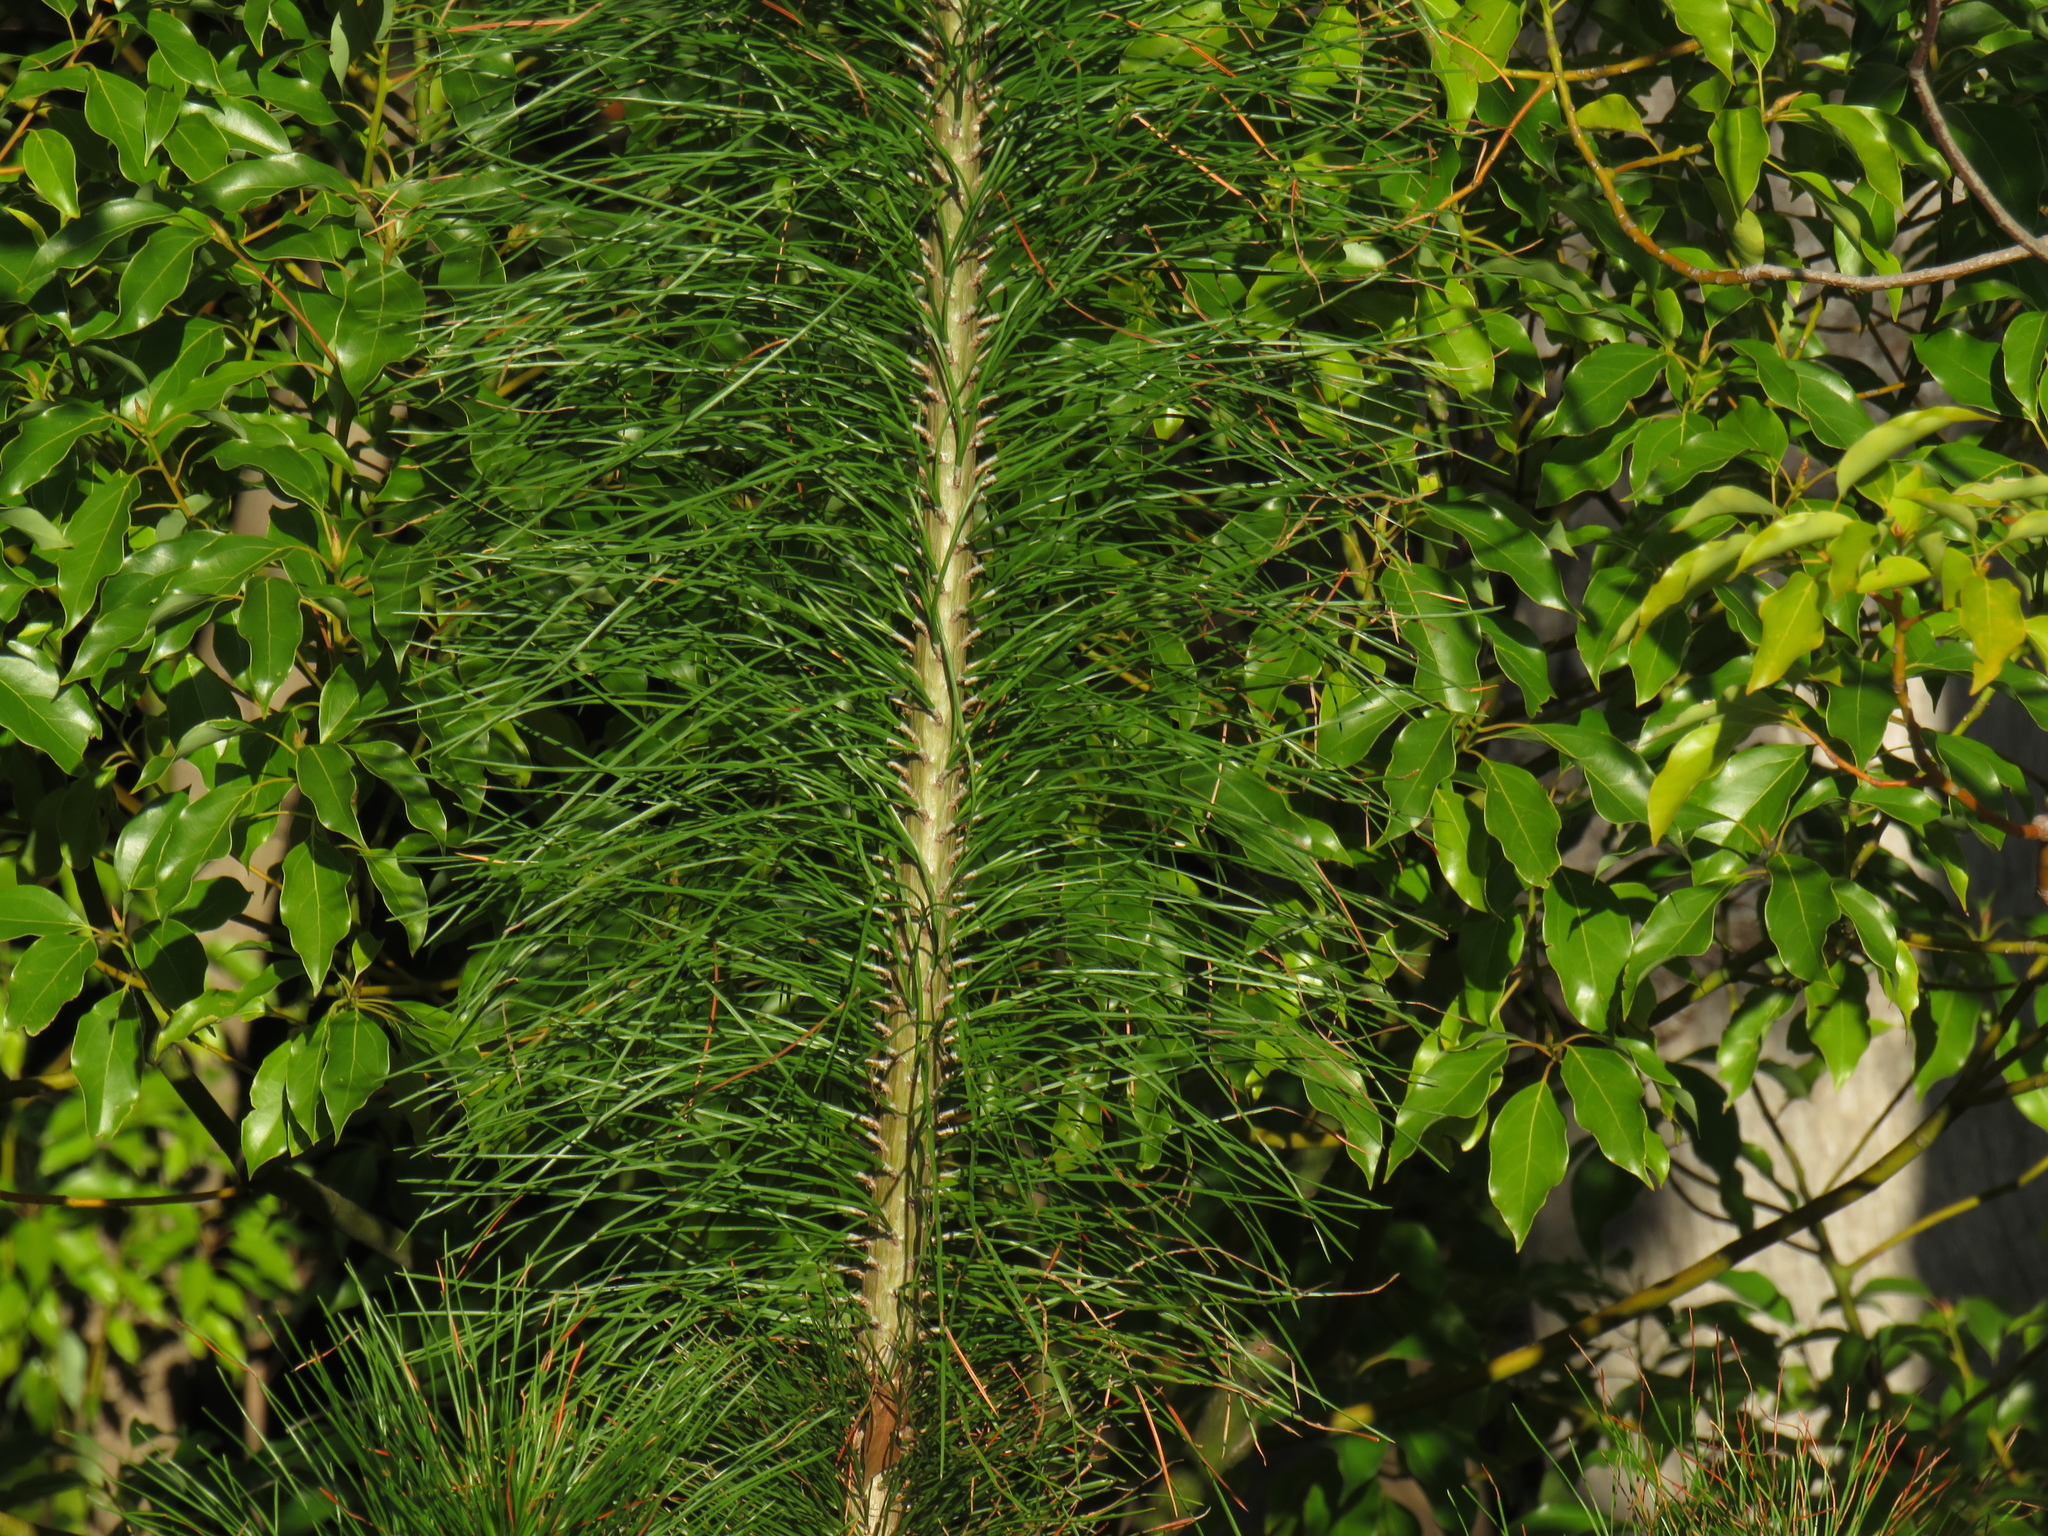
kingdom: Plantae
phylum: Tracheophyta
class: Pinopsida
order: Pinales
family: Pinaceae
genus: Pinus
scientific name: Pinus radiata
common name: Monterey pine
